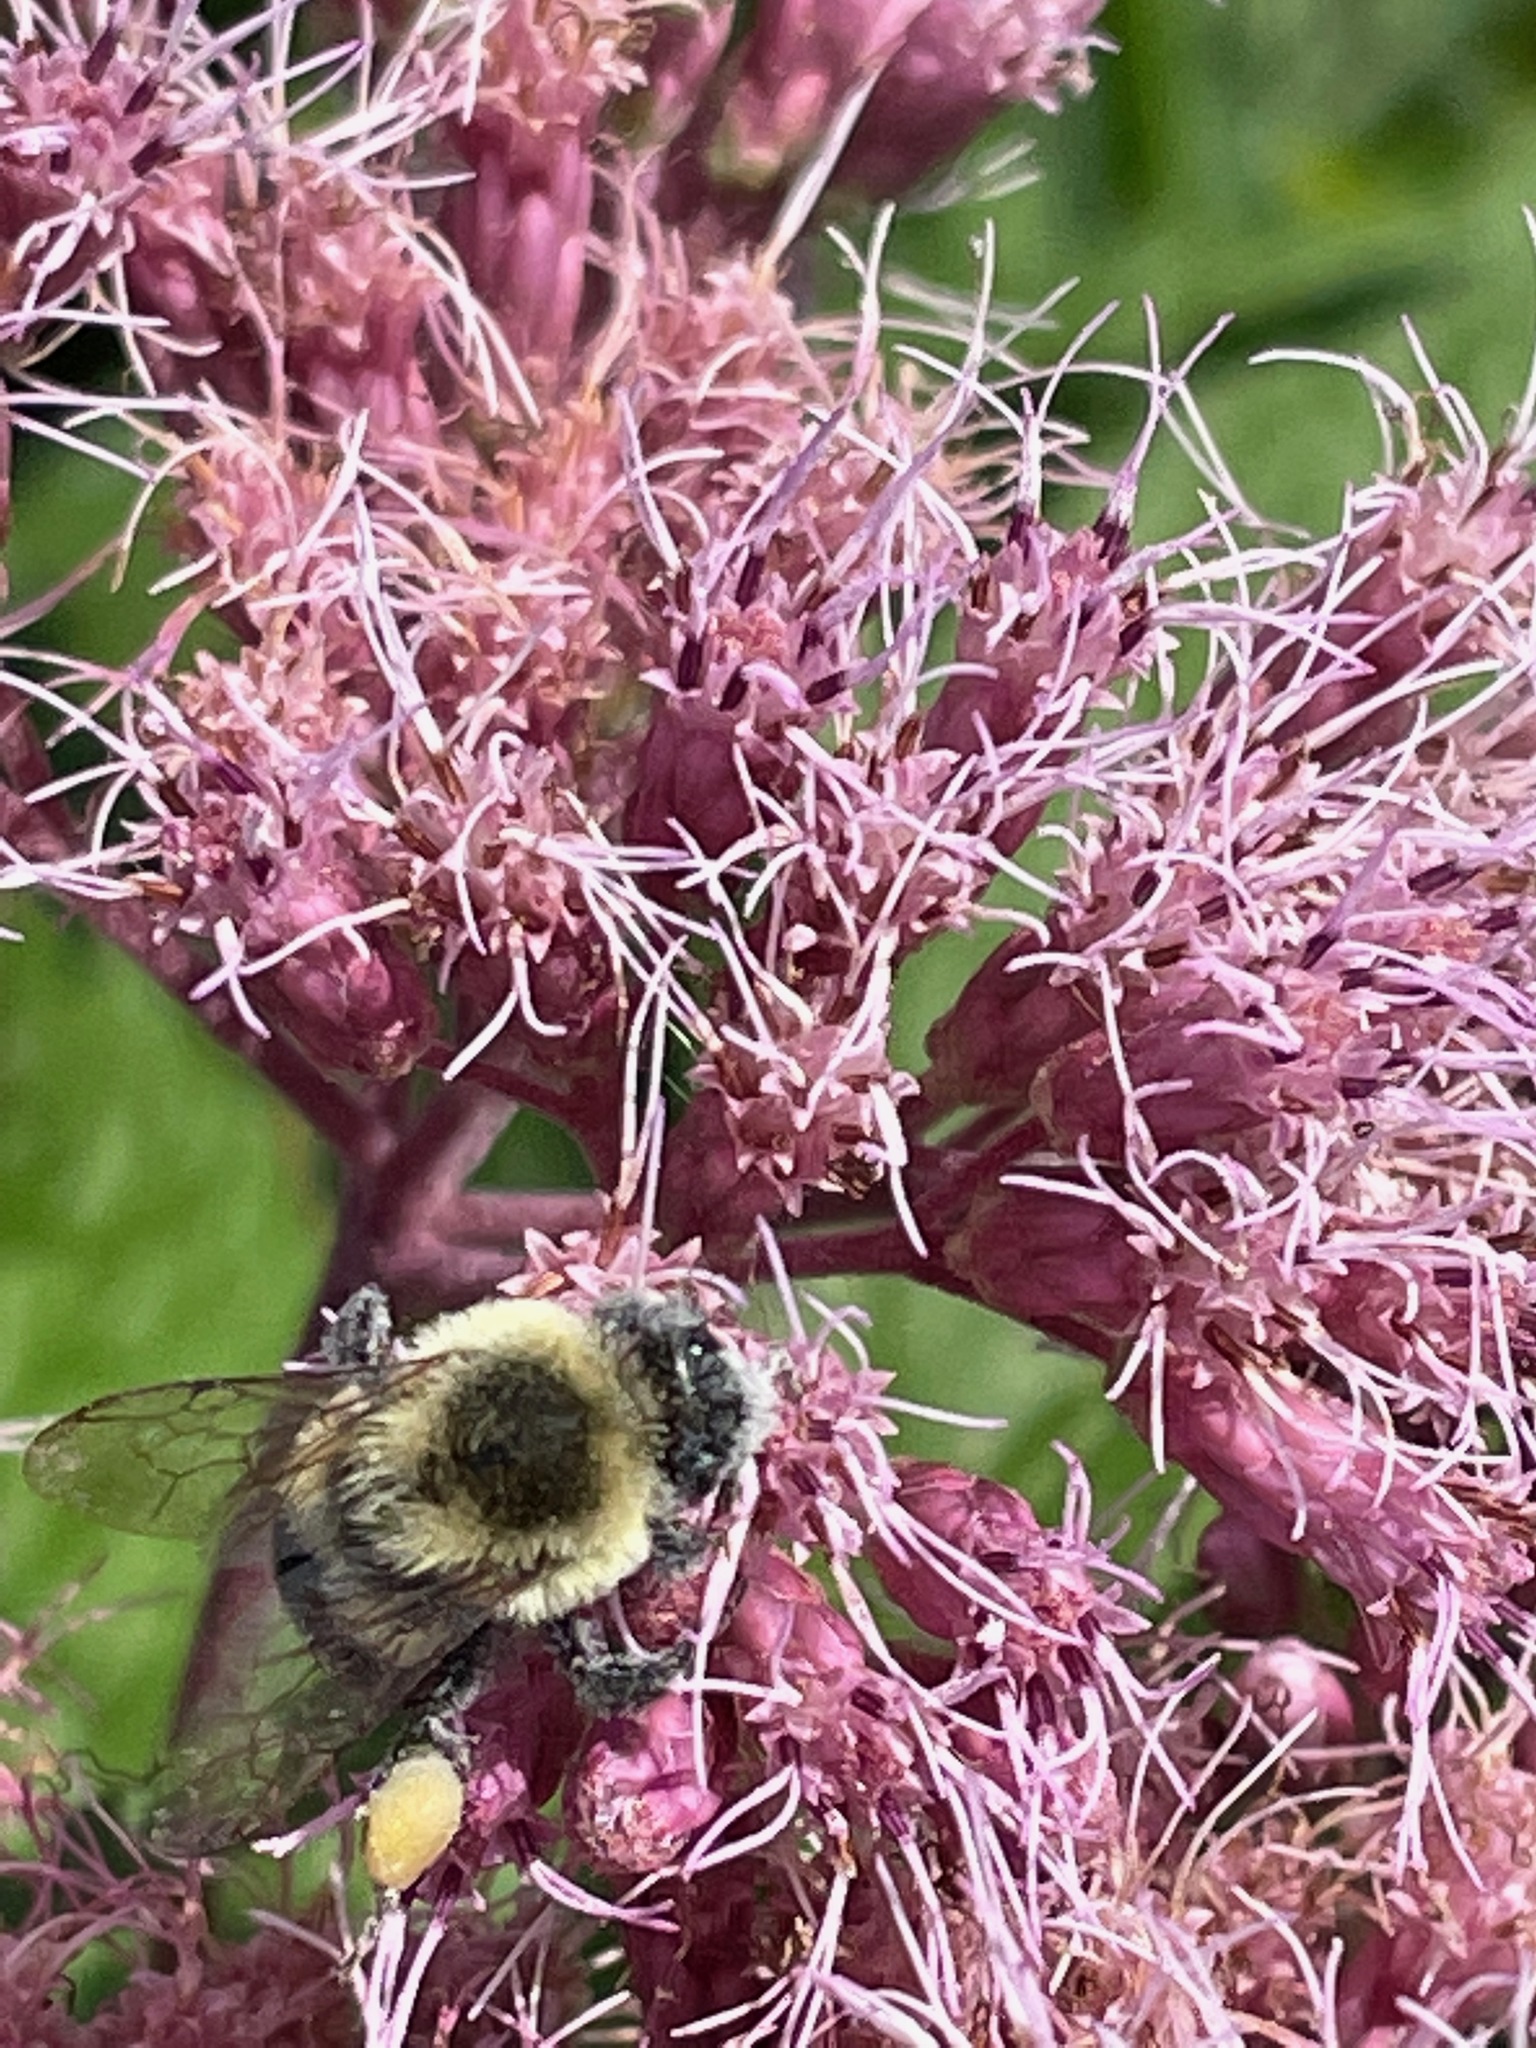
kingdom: Animalia
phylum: Arthropoda
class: Insecta
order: Hymenoptera
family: Apidae
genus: Bombus
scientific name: Bombus impatiens
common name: Common eastern bumble bee
